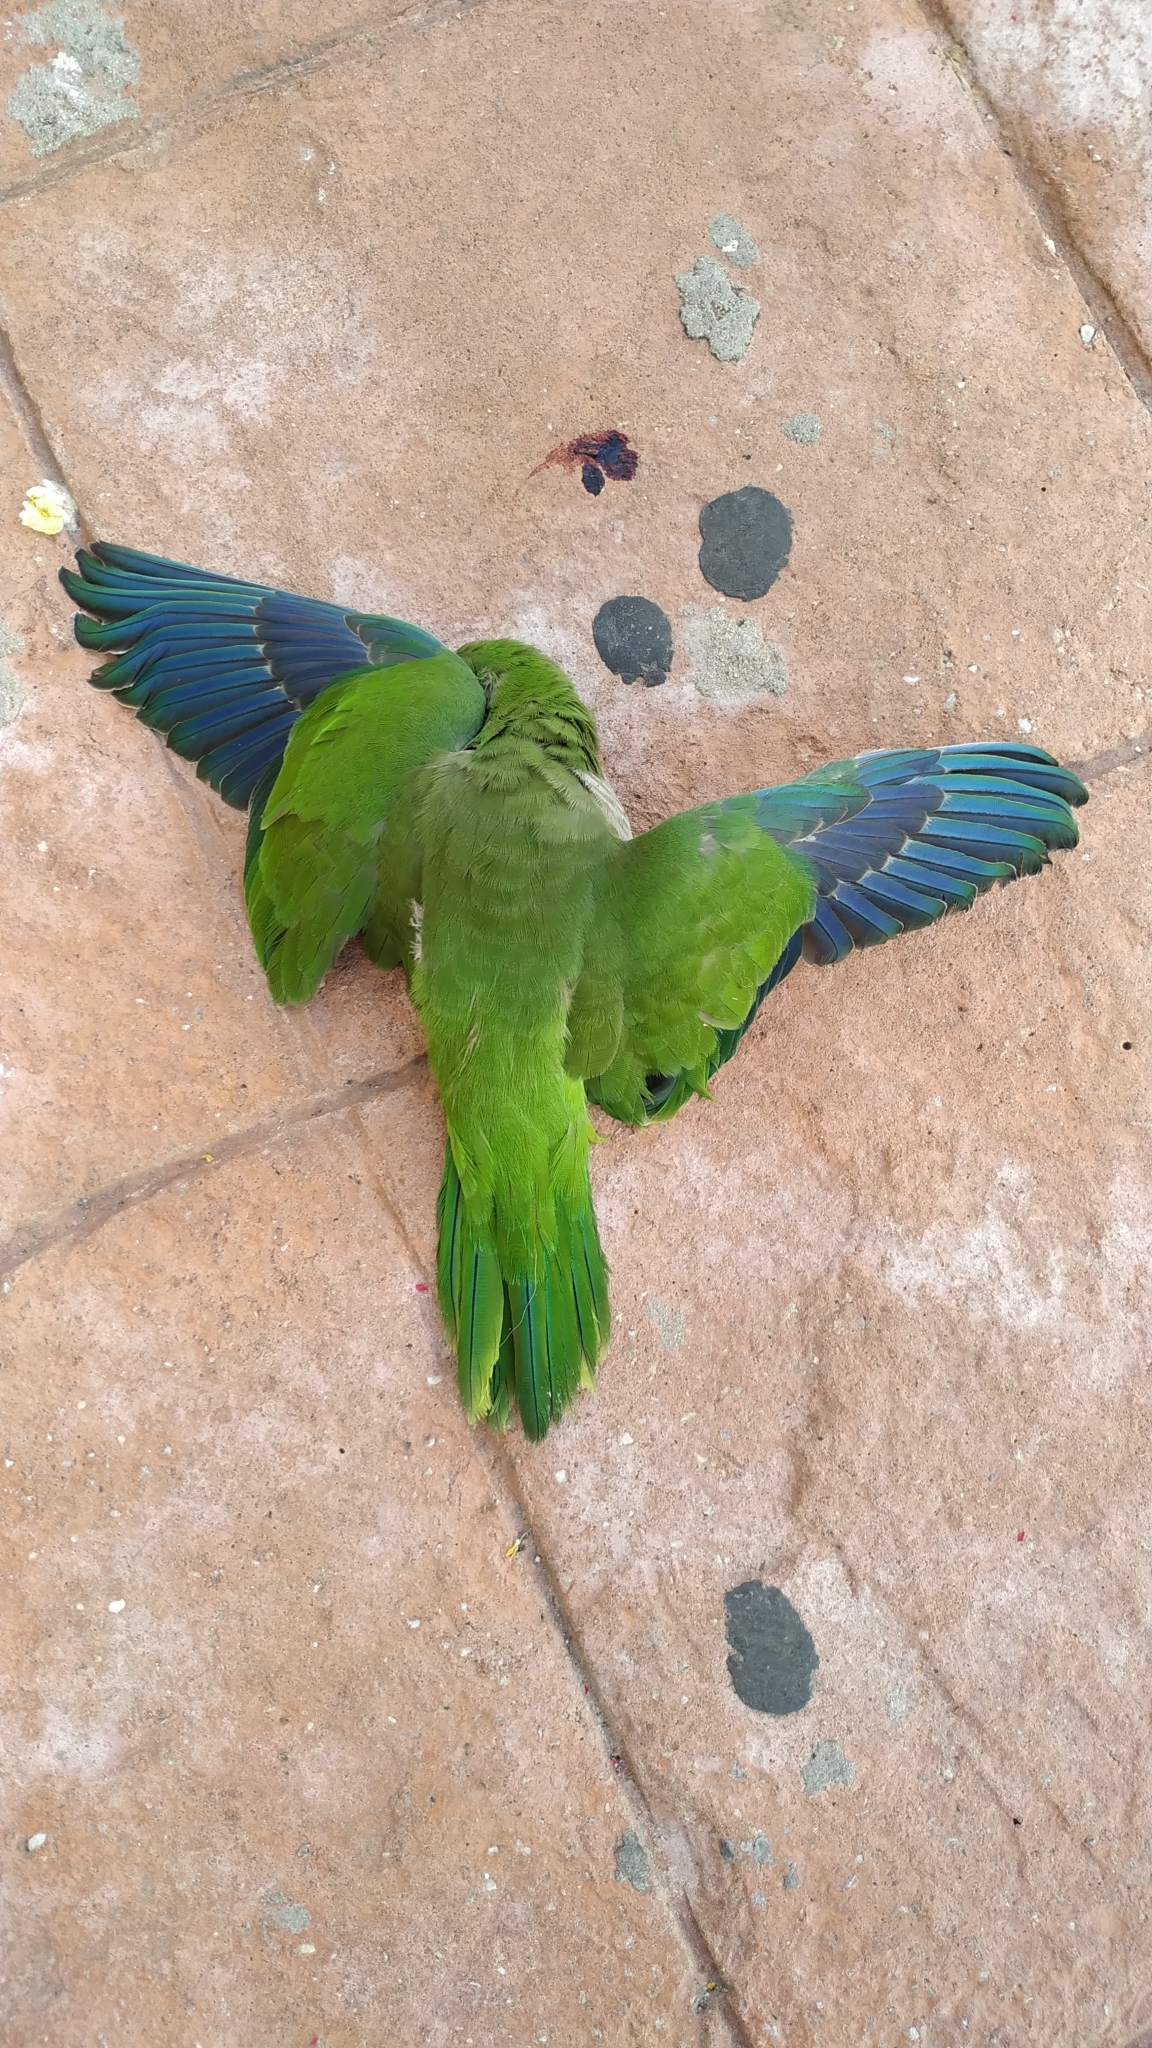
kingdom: Animalia
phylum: Chordata
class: Aves
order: Psittaciformes
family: Psittacidae
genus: Myiopsitta
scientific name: Myiopsitta monachus
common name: Monk parakeet
